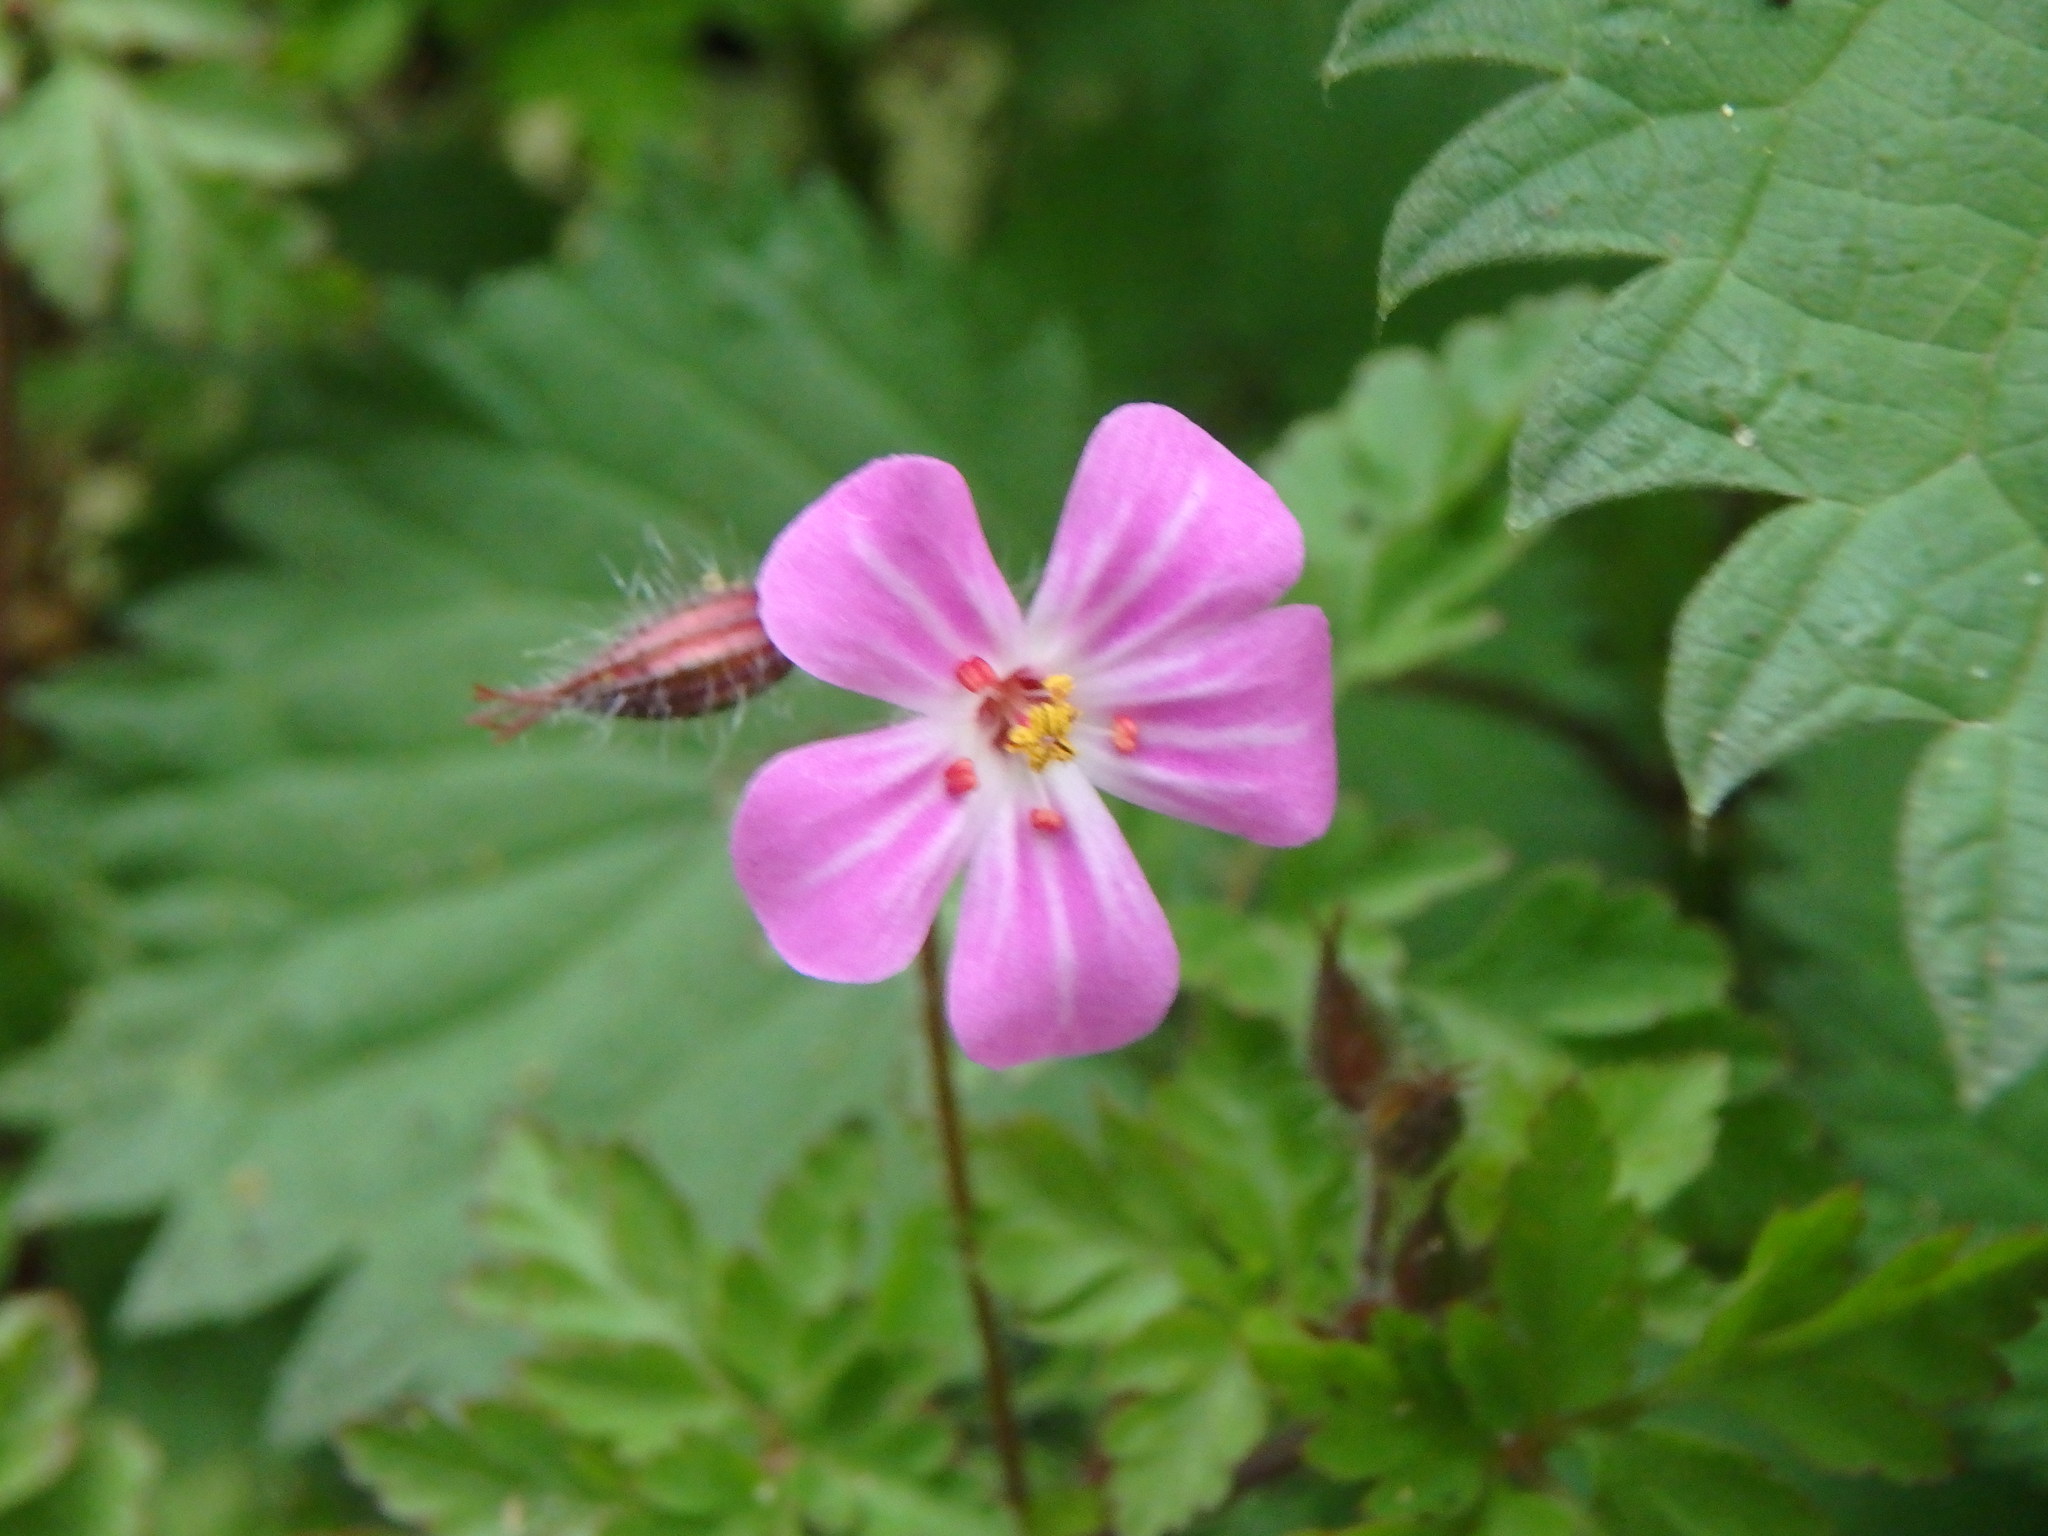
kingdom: Plantae
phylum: Tracheophyta
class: Magnoliopsida
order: Geraniales
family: Geraniaceae
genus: Geranium
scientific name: Geranium robertianum
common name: Herb-robert
